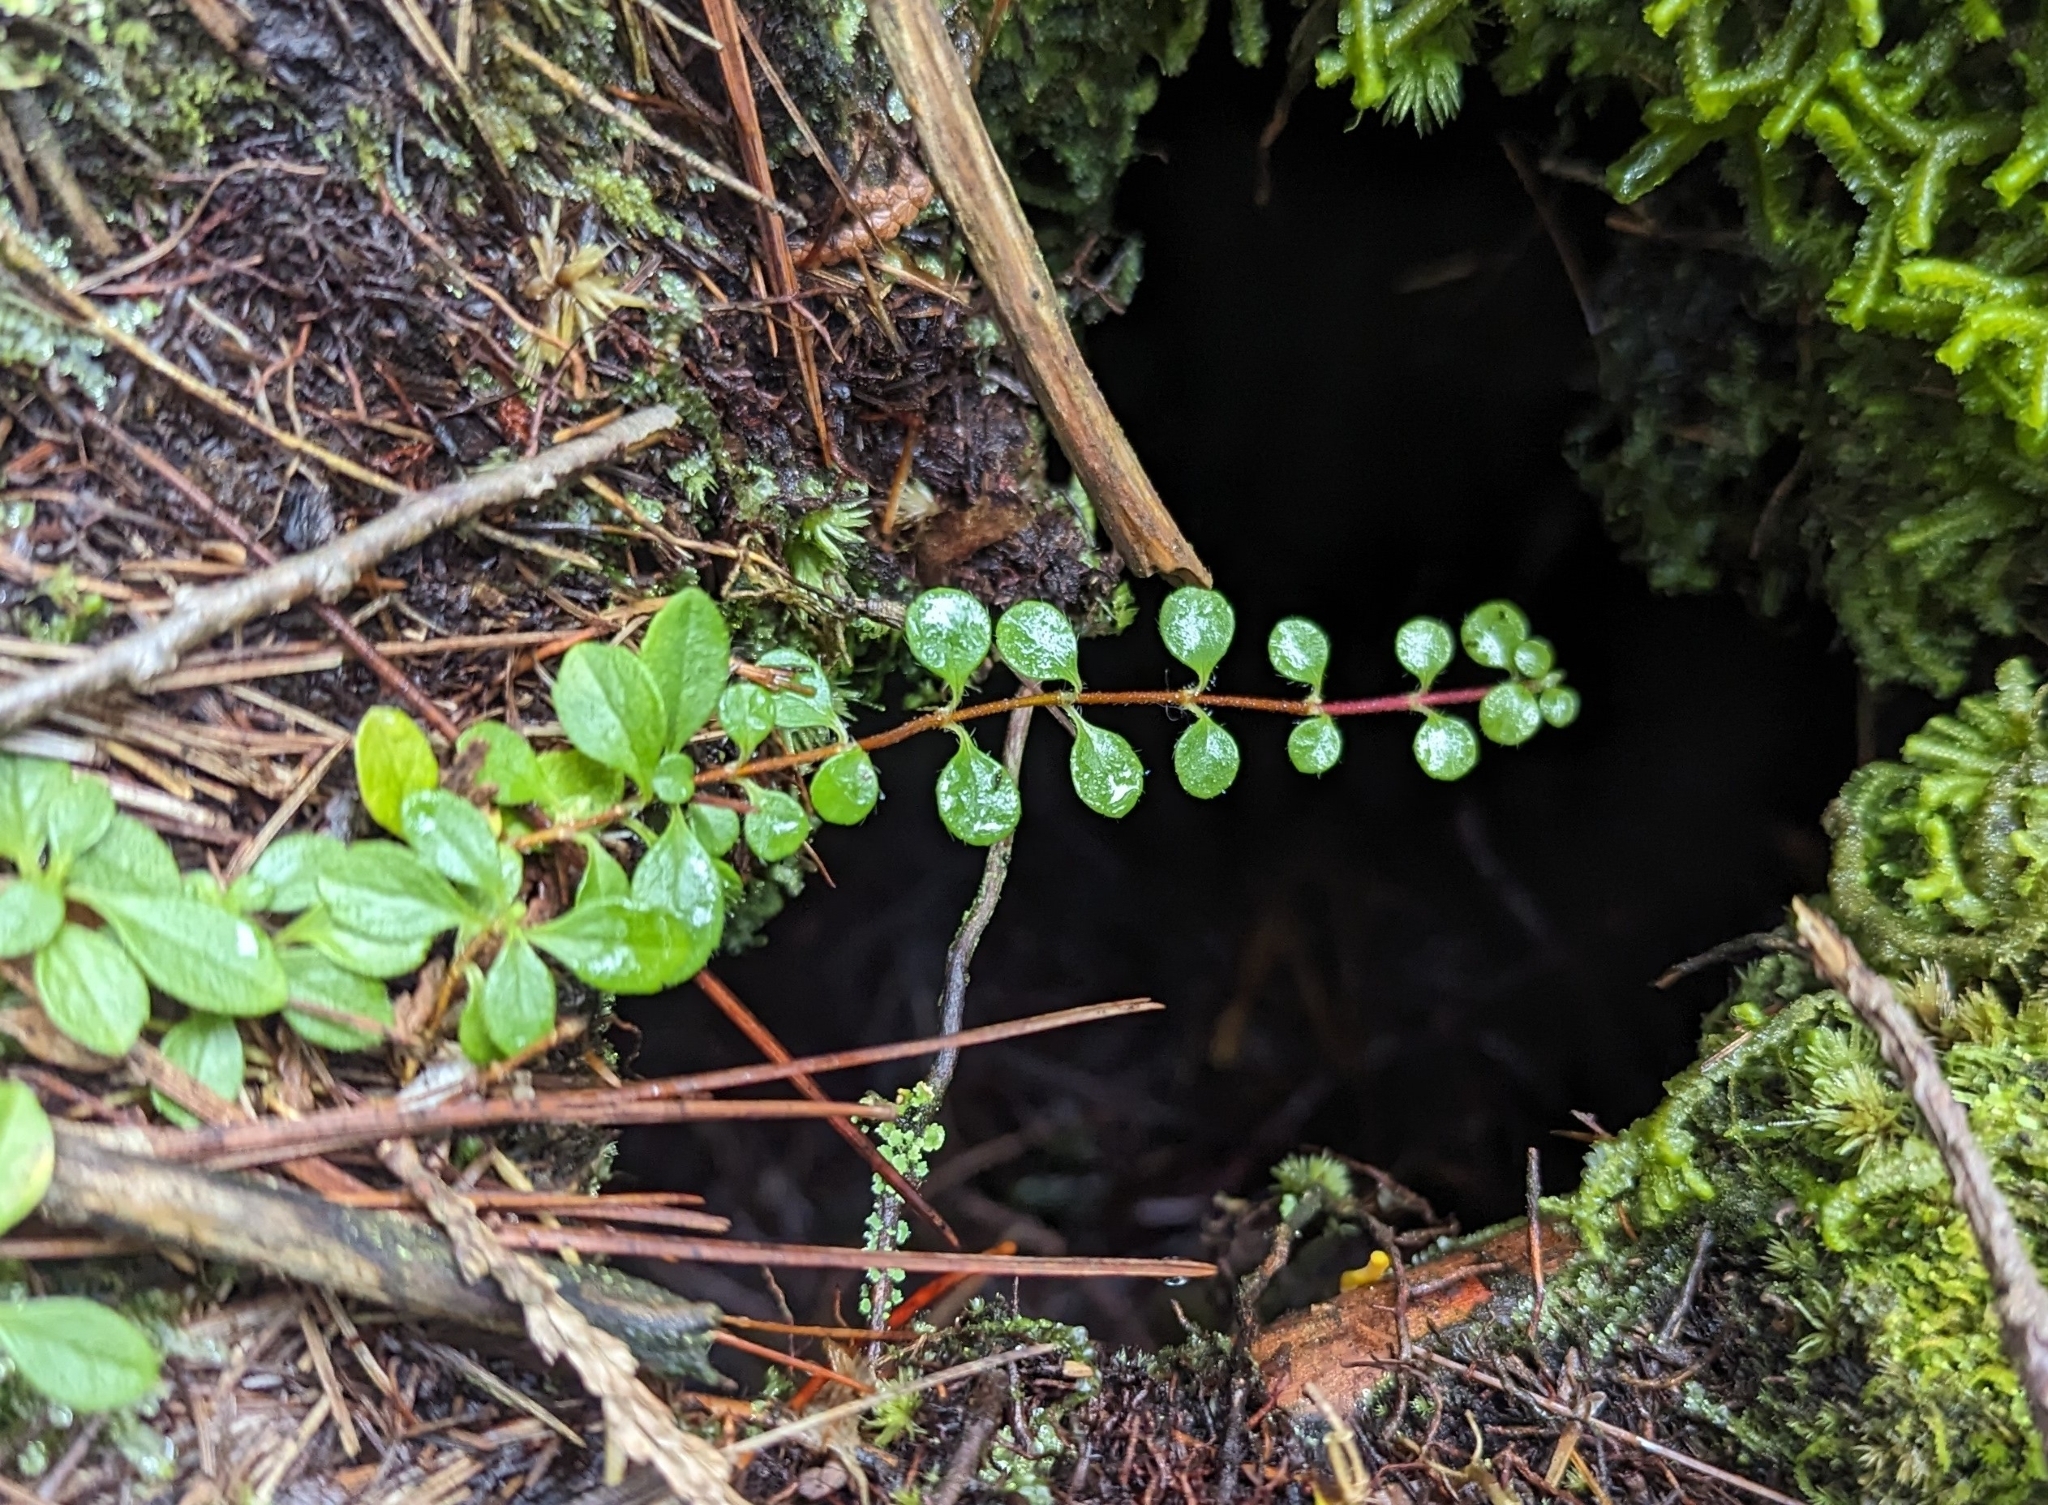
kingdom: Plantae
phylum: Tracheophyta
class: Magnoliopsida
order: Dipsacales
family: Caprifoliaceae
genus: Linnaea
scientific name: Linnaea borealis
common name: Twinflower
